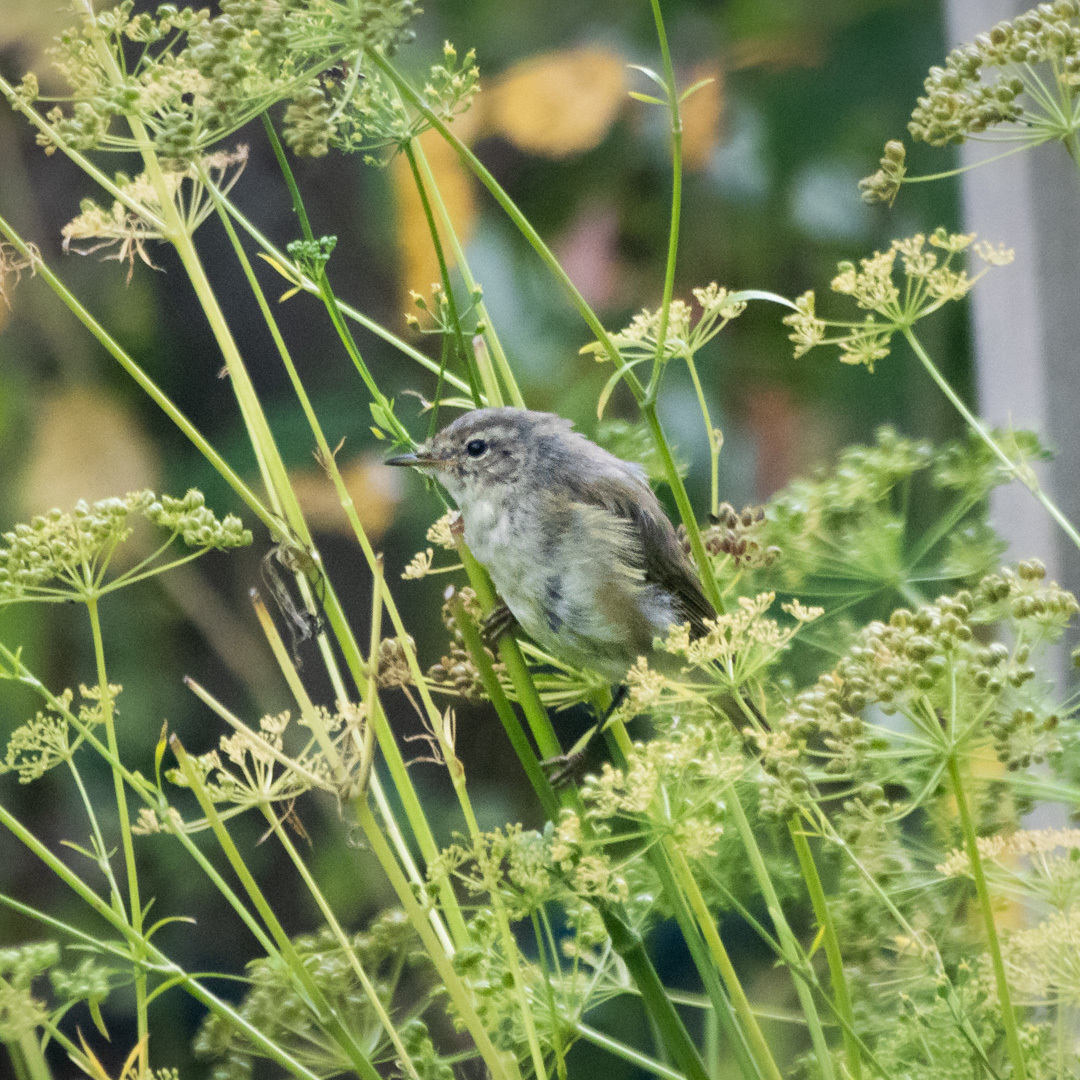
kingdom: Animalia
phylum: Chordata
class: Aves
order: Passeriformes
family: Phylloscopidae
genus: Phylloscopus
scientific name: Phylloscopus collybita
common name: Common chiffchaff
